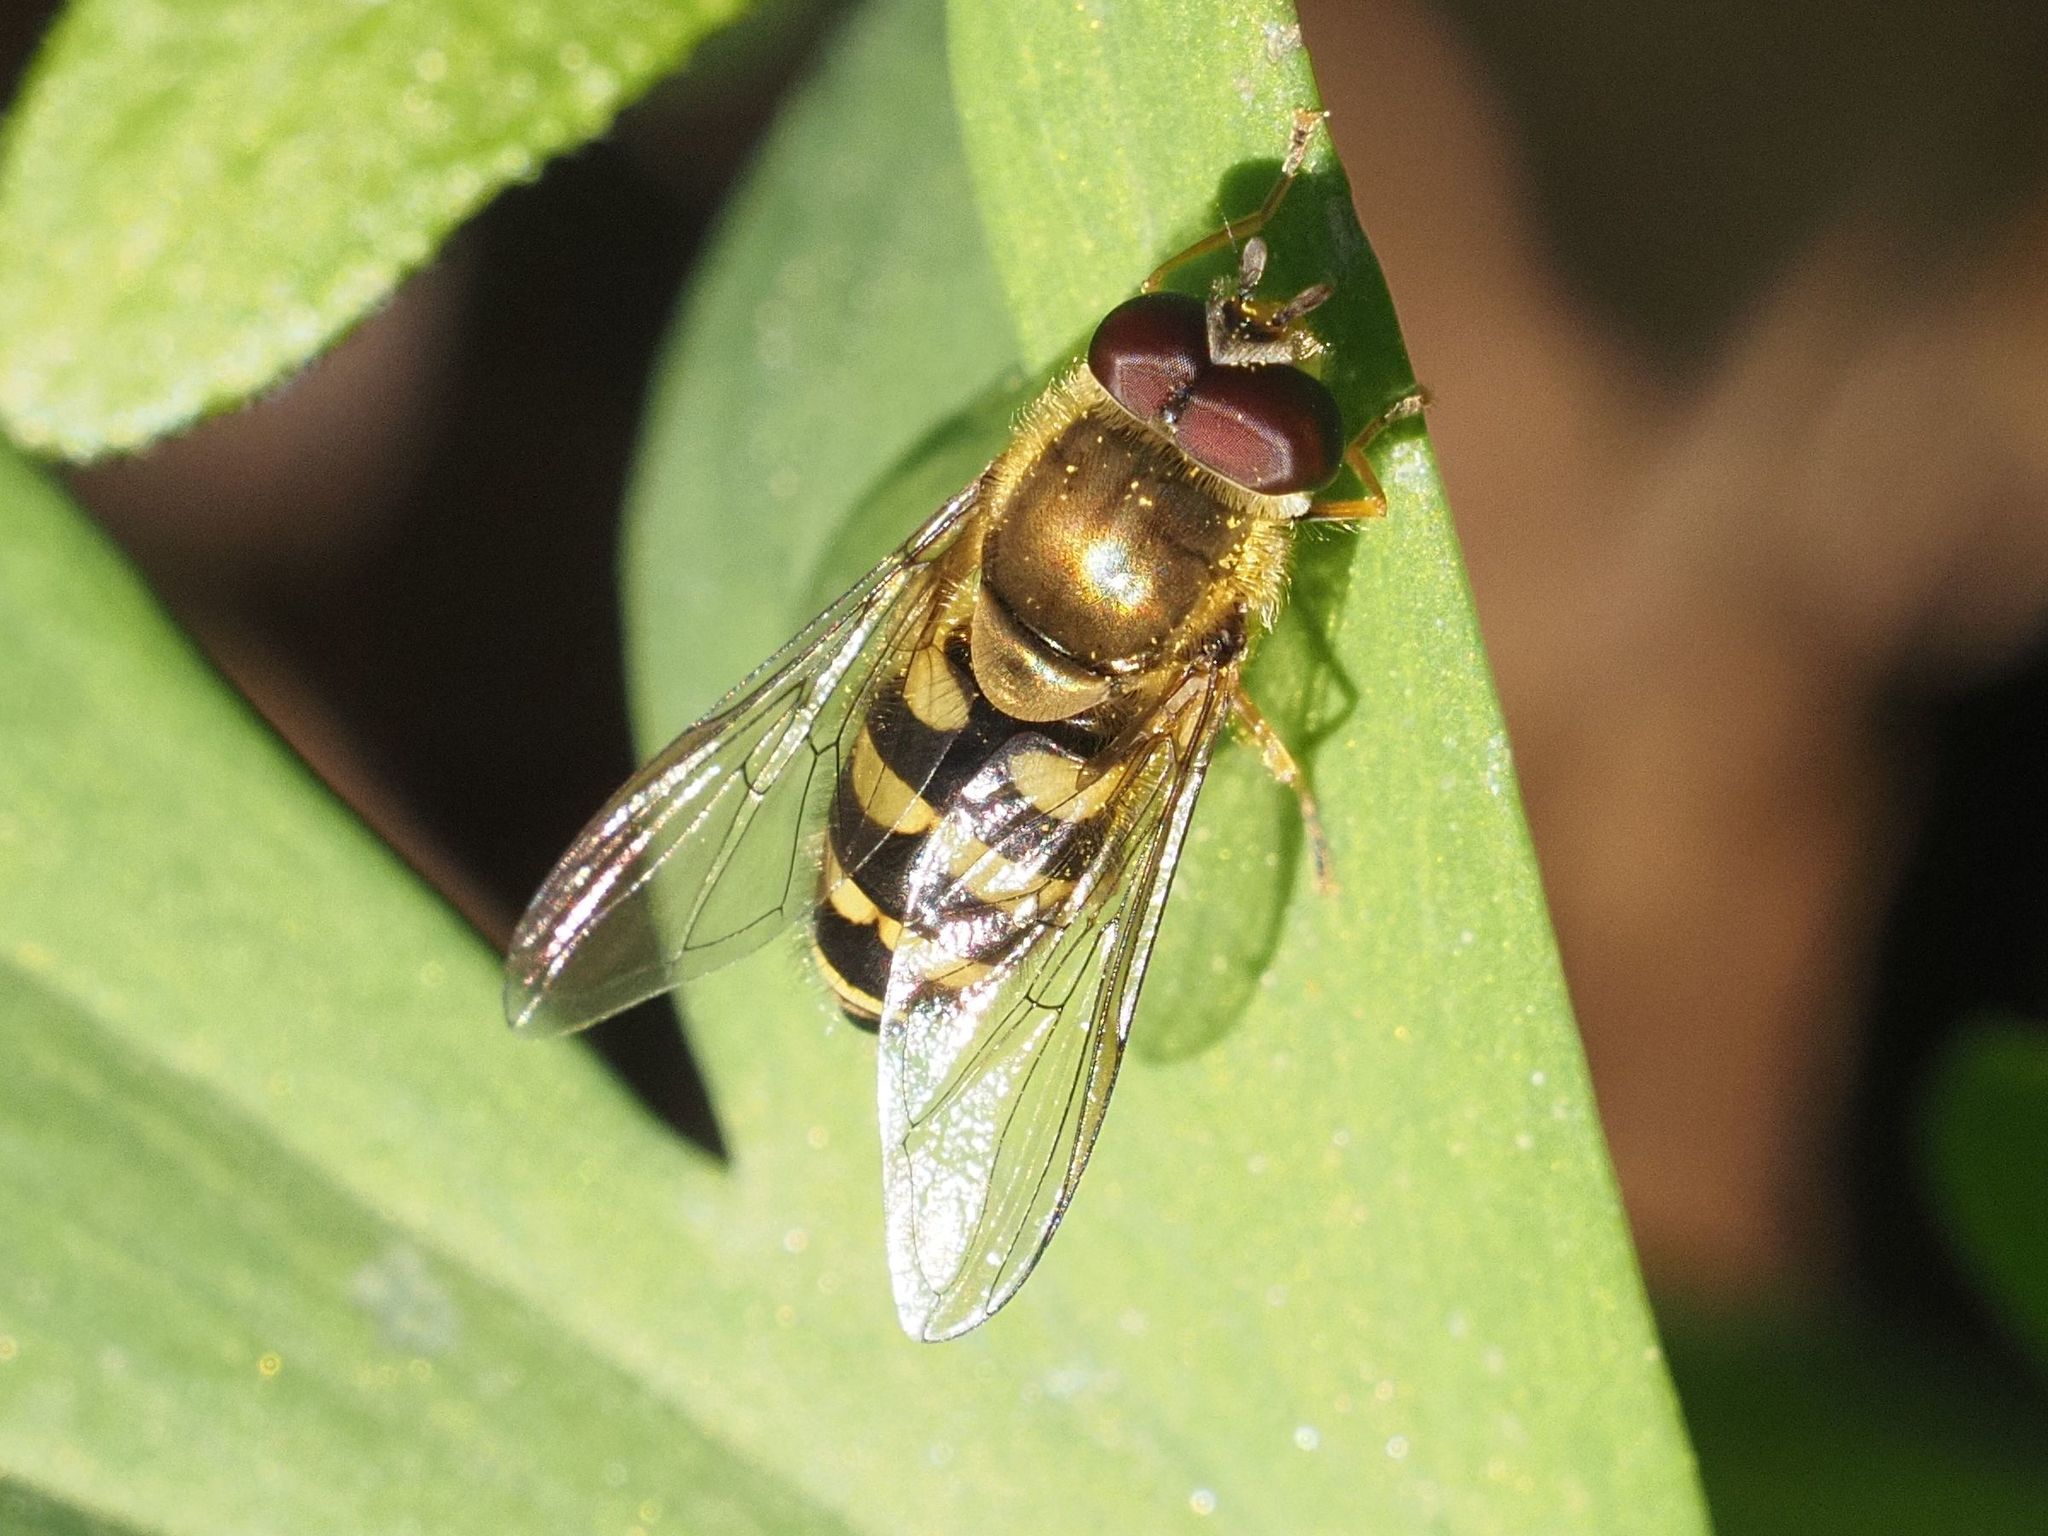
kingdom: Animalia
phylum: Arthropoda
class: Insecta
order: Diptera
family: Syrphidae
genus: Syrphus
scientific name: Syrphus
